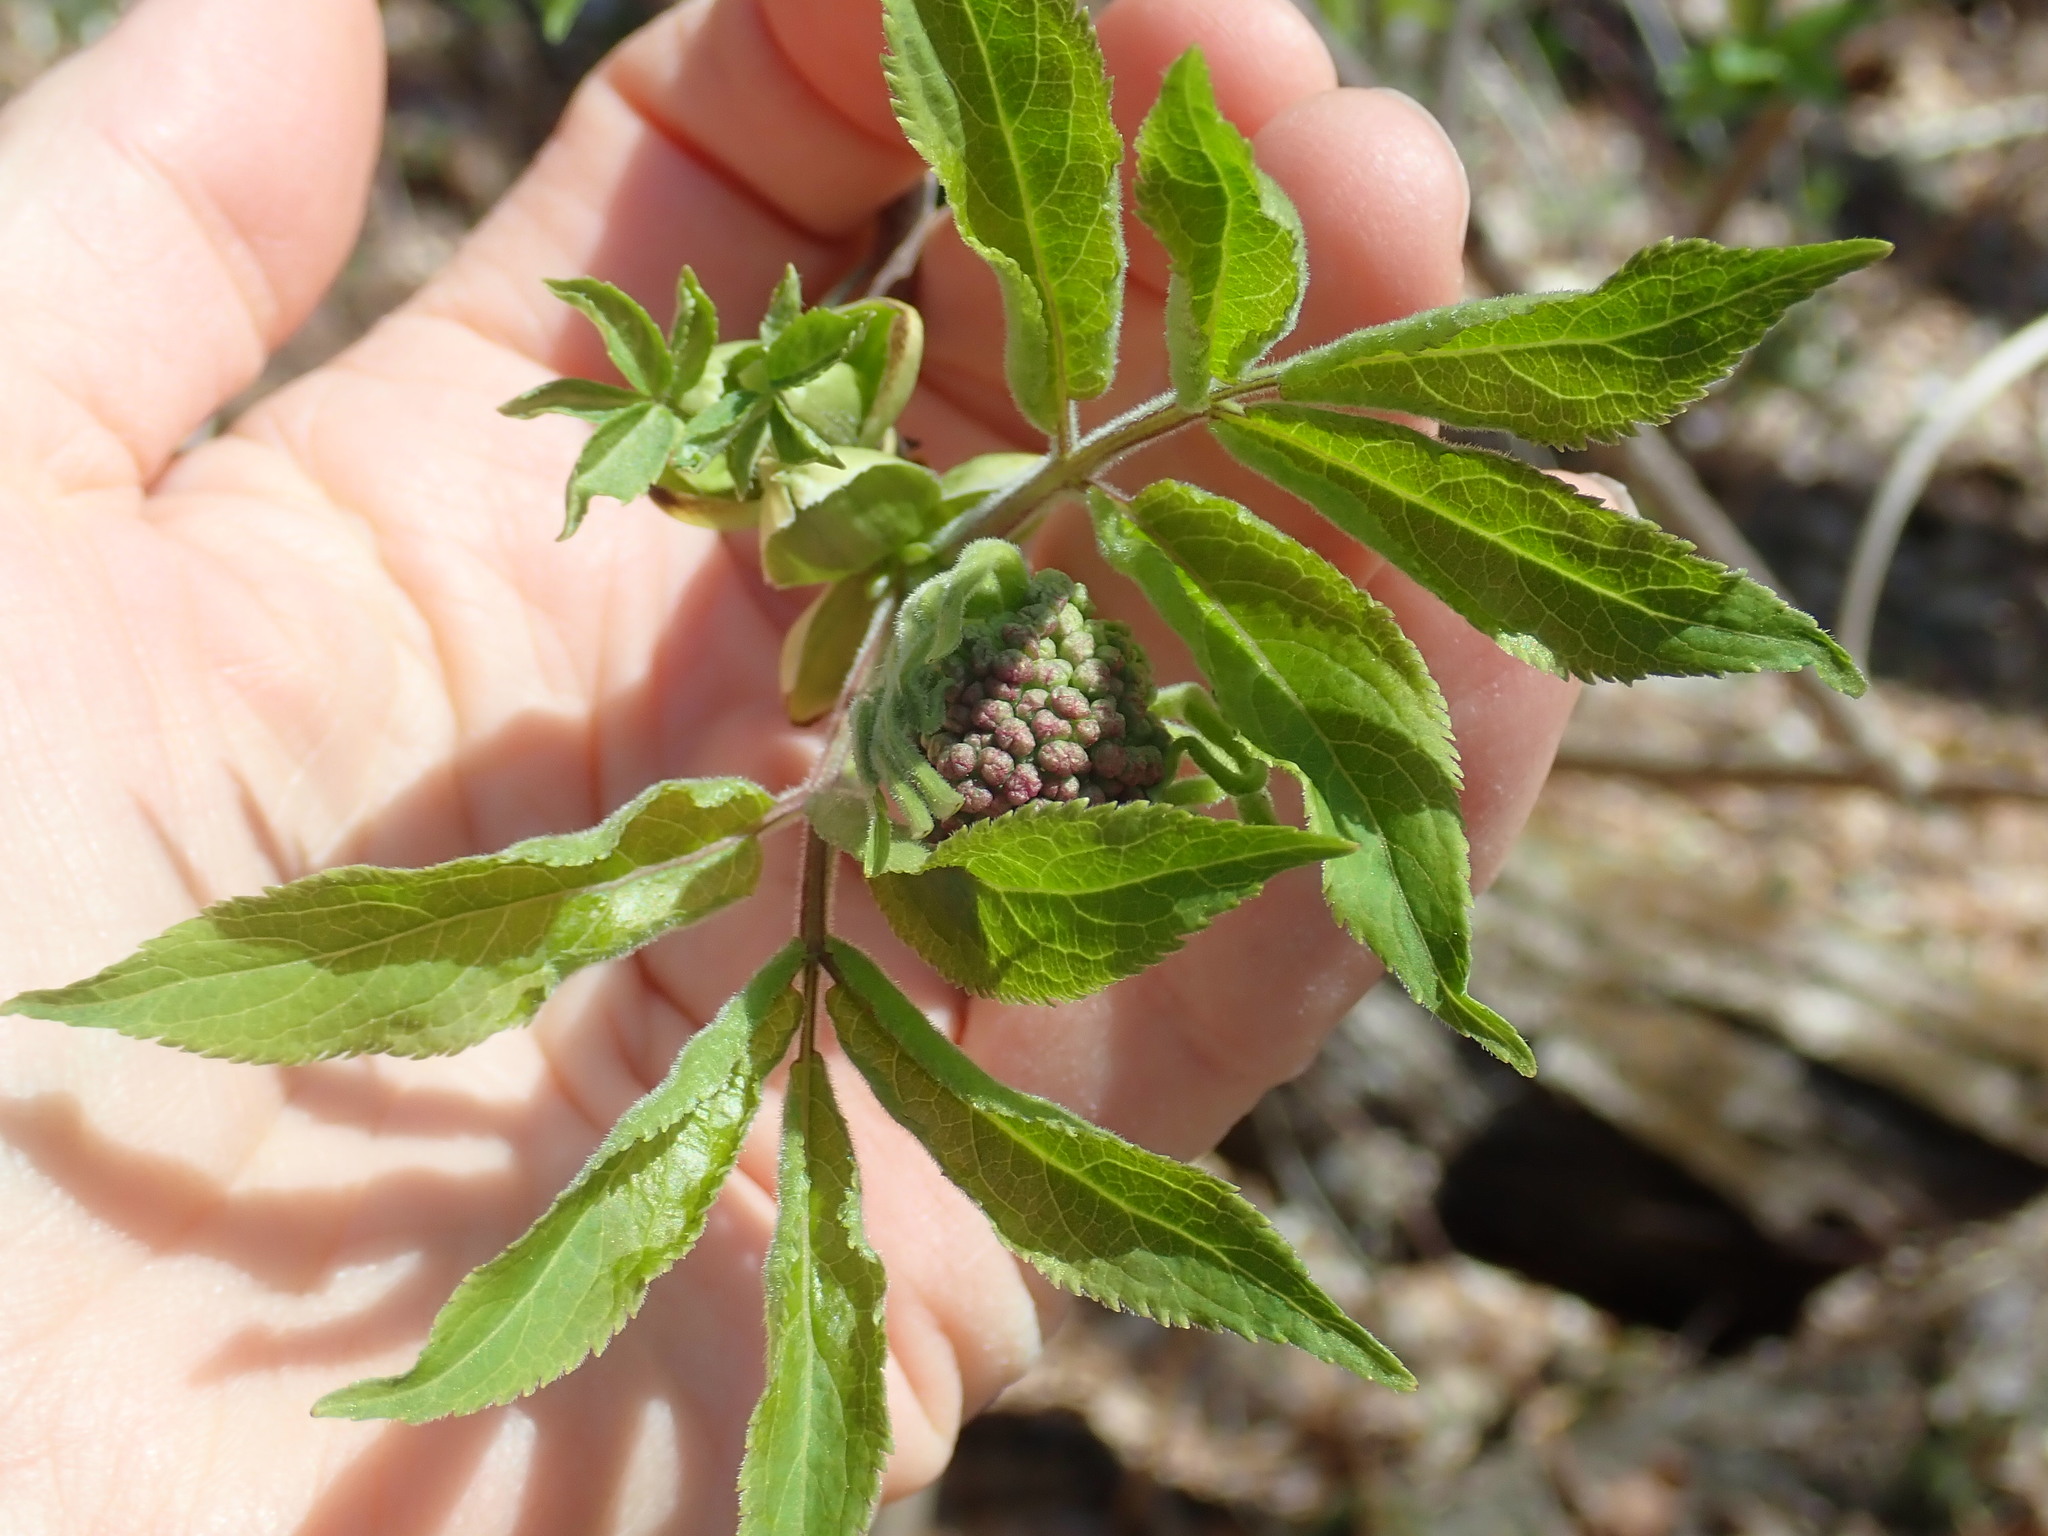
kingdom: Plantae
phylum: Tracheophyta
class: Magnoliopsida
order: Dipsacales
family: Viburnaceae
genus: Sambucus
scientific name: Sambucus racemosa
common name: Red-berried elder
